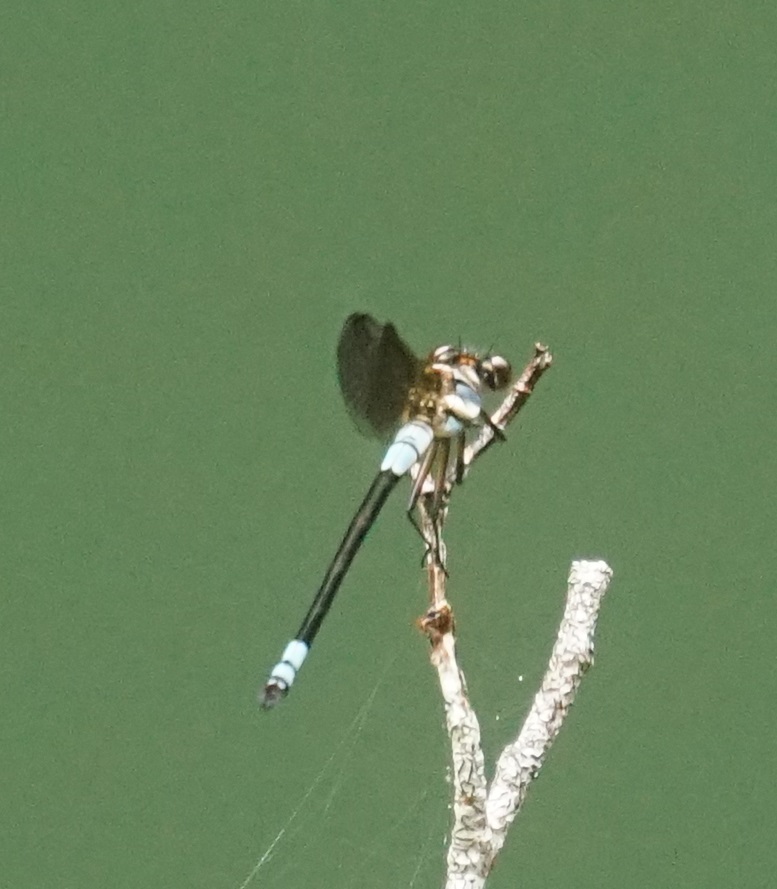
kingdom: Animalia
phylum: Arthropoda
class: Insecta
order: Odonata
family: Lestoideidae
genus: Diphlebia
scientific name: Diphlebia euphoeoides
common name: Tropical rockmaster
